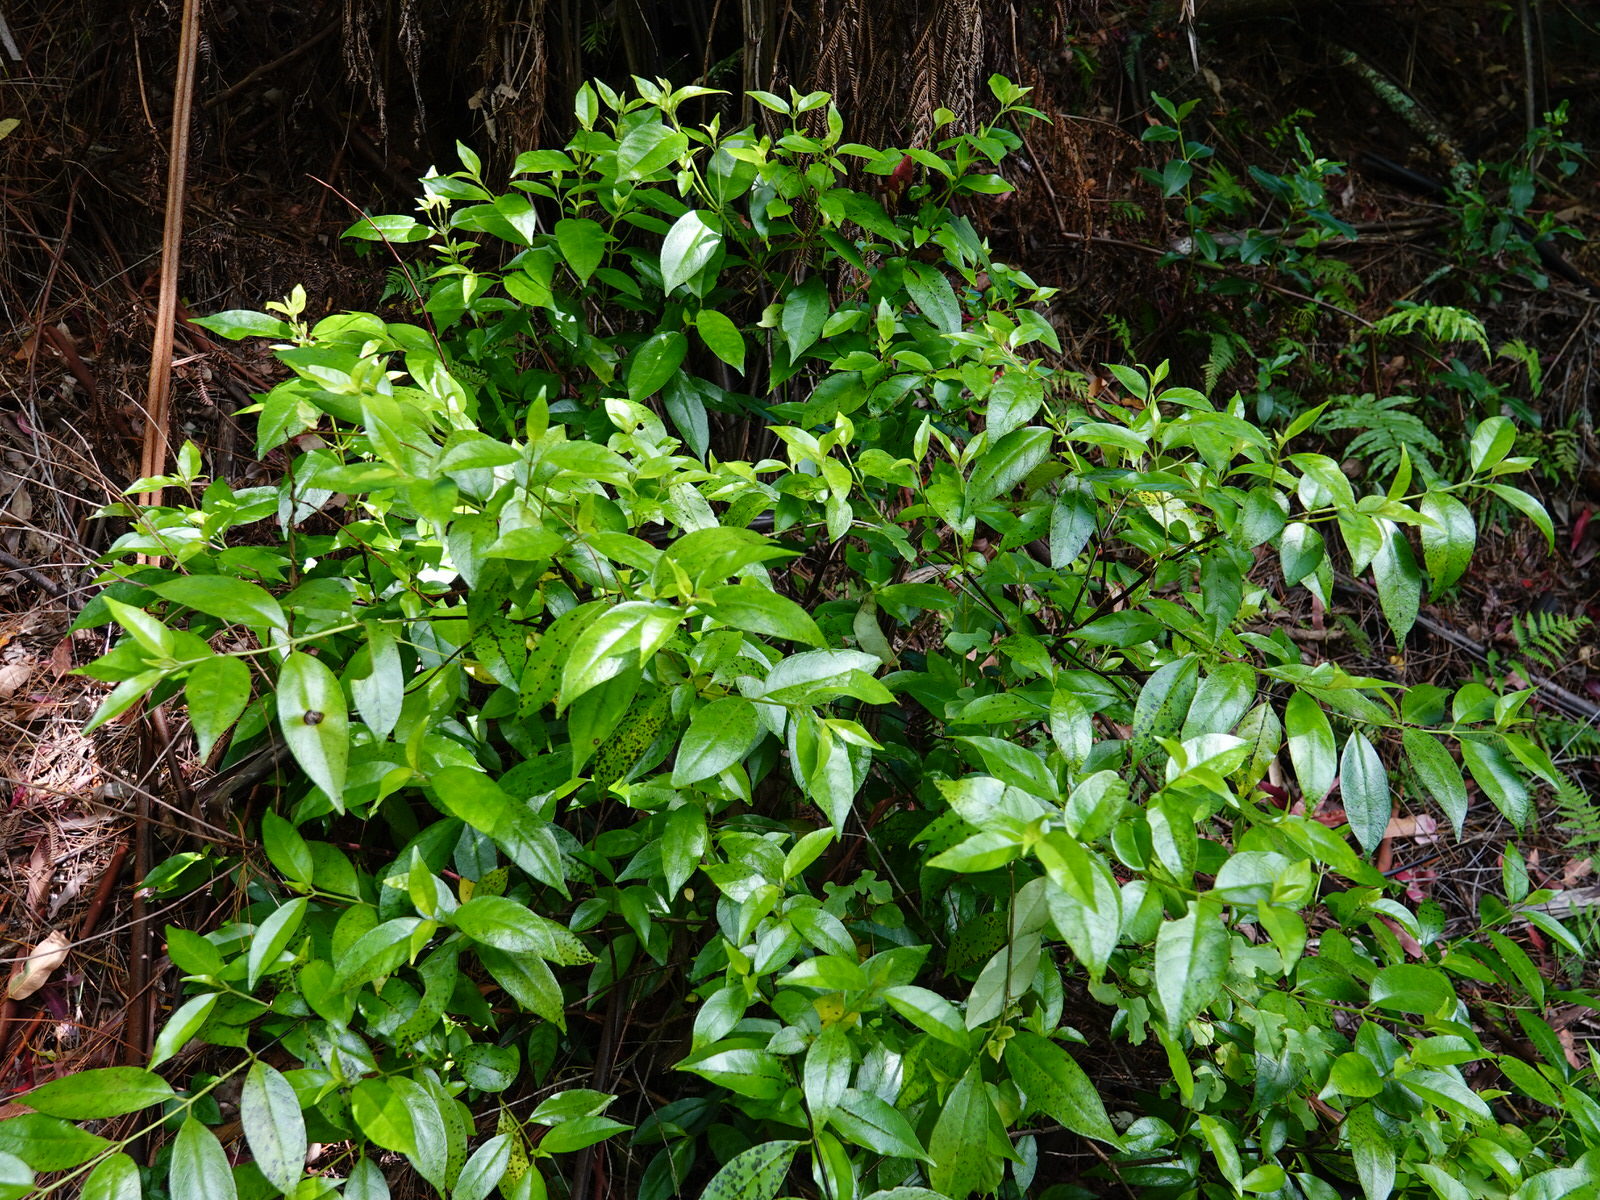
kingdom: Plantae
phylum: Tracheophyta
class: Magnoliopsida
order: Gentianales
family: Loganiaceae
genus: Geniostoma
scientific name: Geniostoma ligustrifolium
